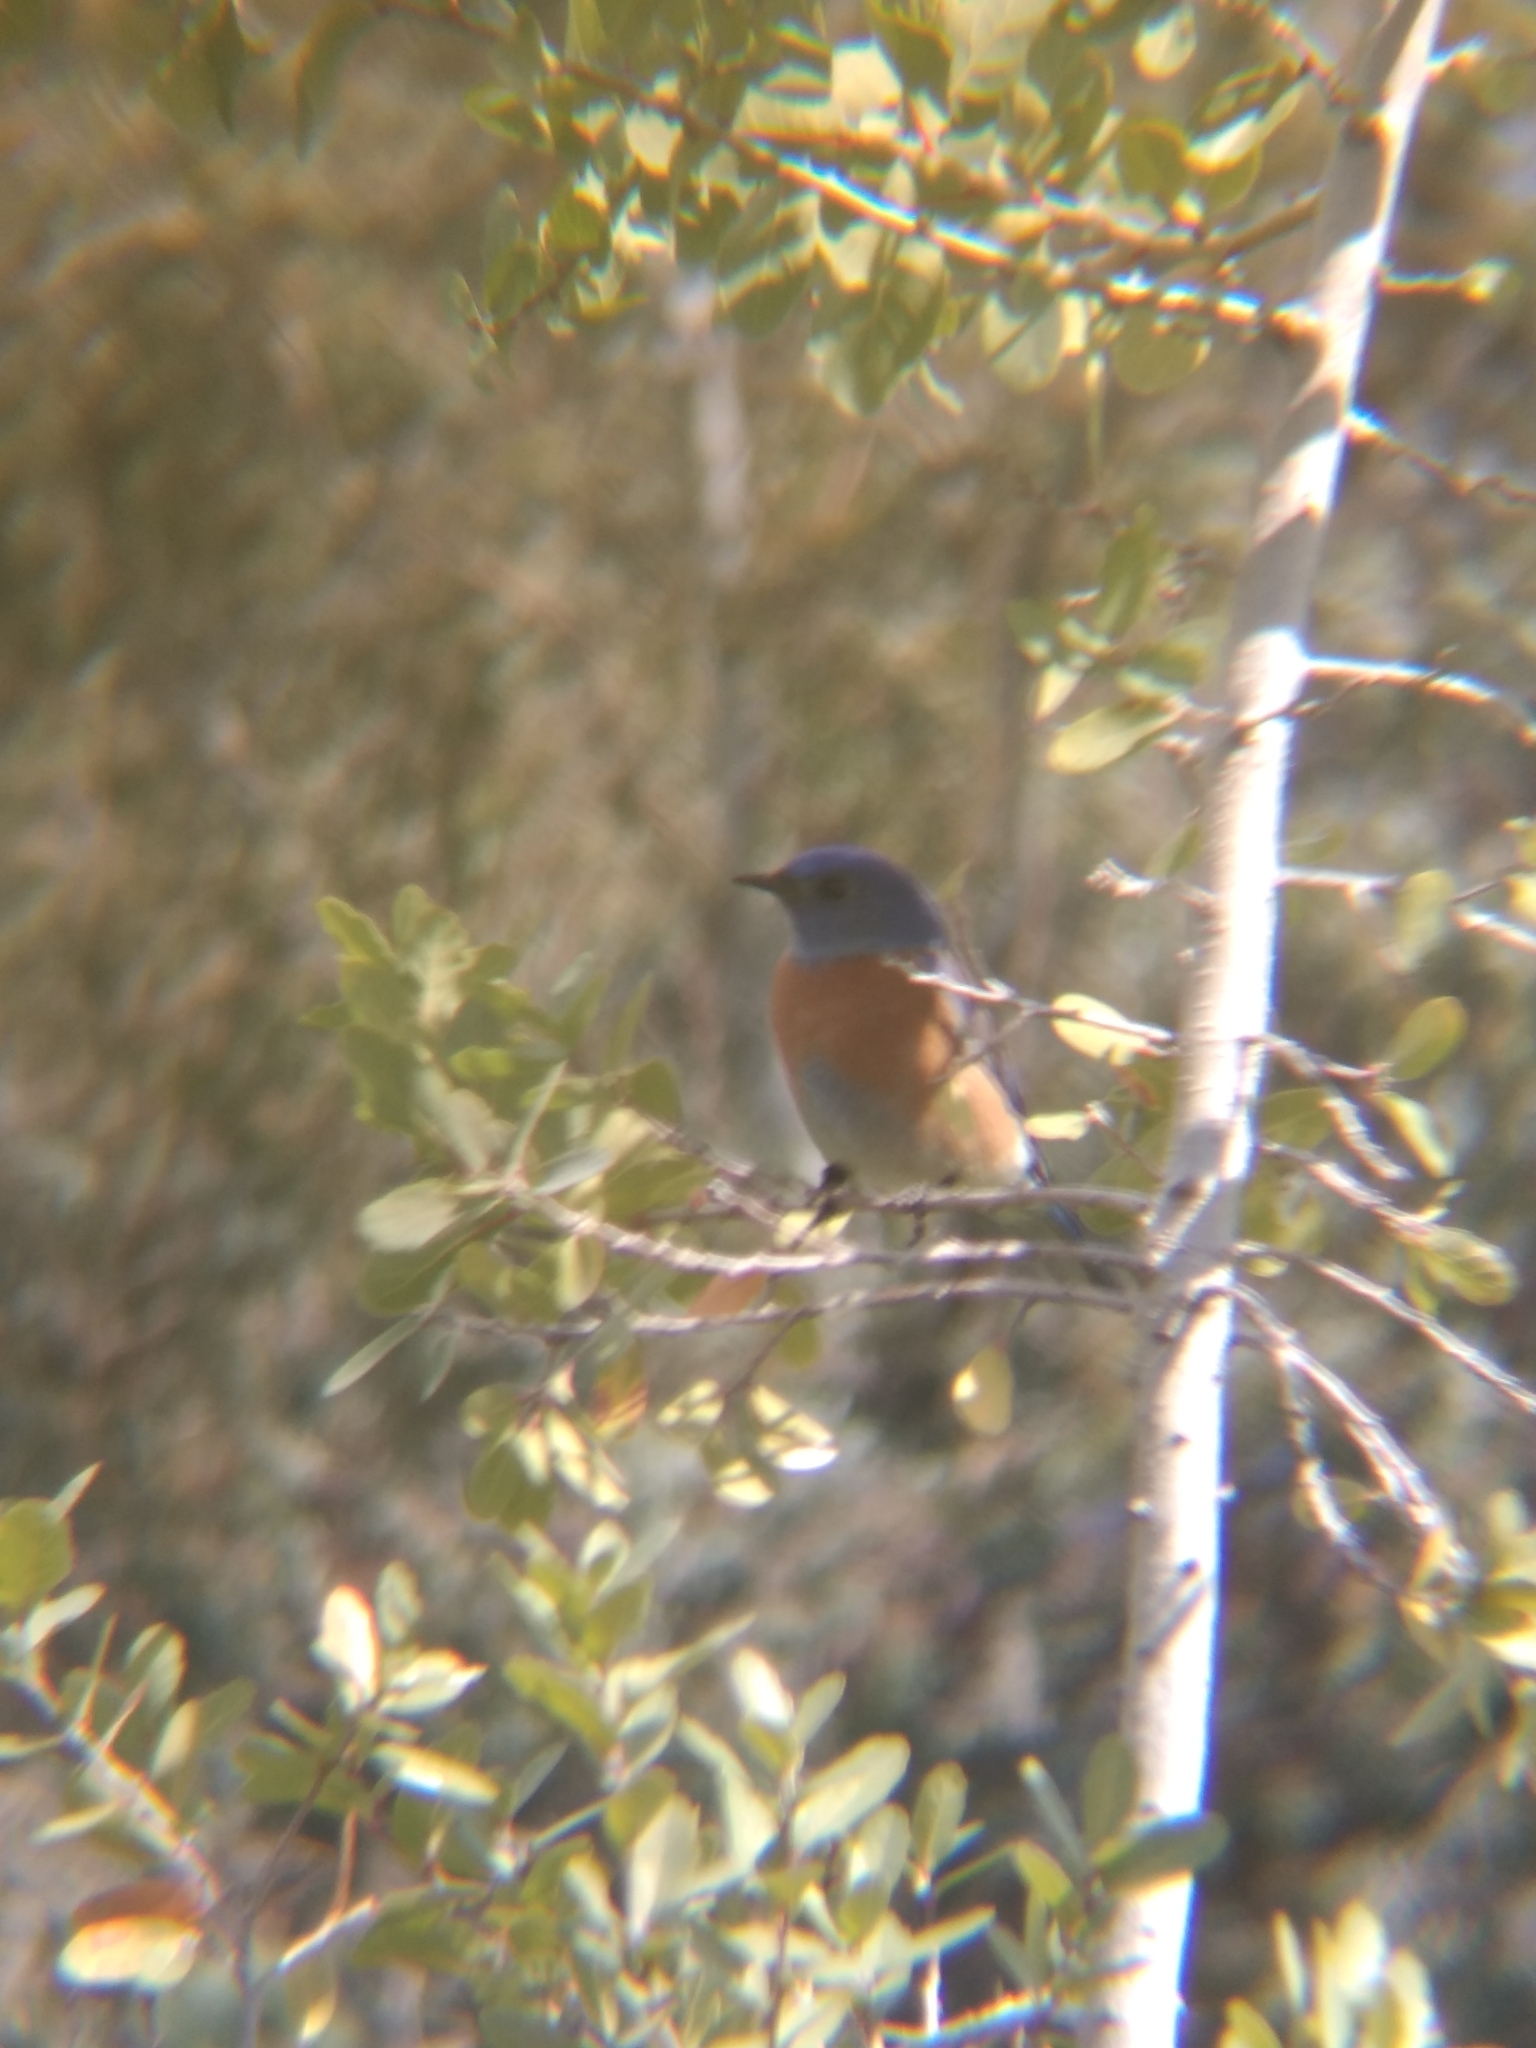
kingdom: Animalia
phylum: Chordata
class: Aves
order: Passeriformes
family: Turdidae
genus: Sialia
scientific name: Sialia mexicana
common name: Western bluebird
